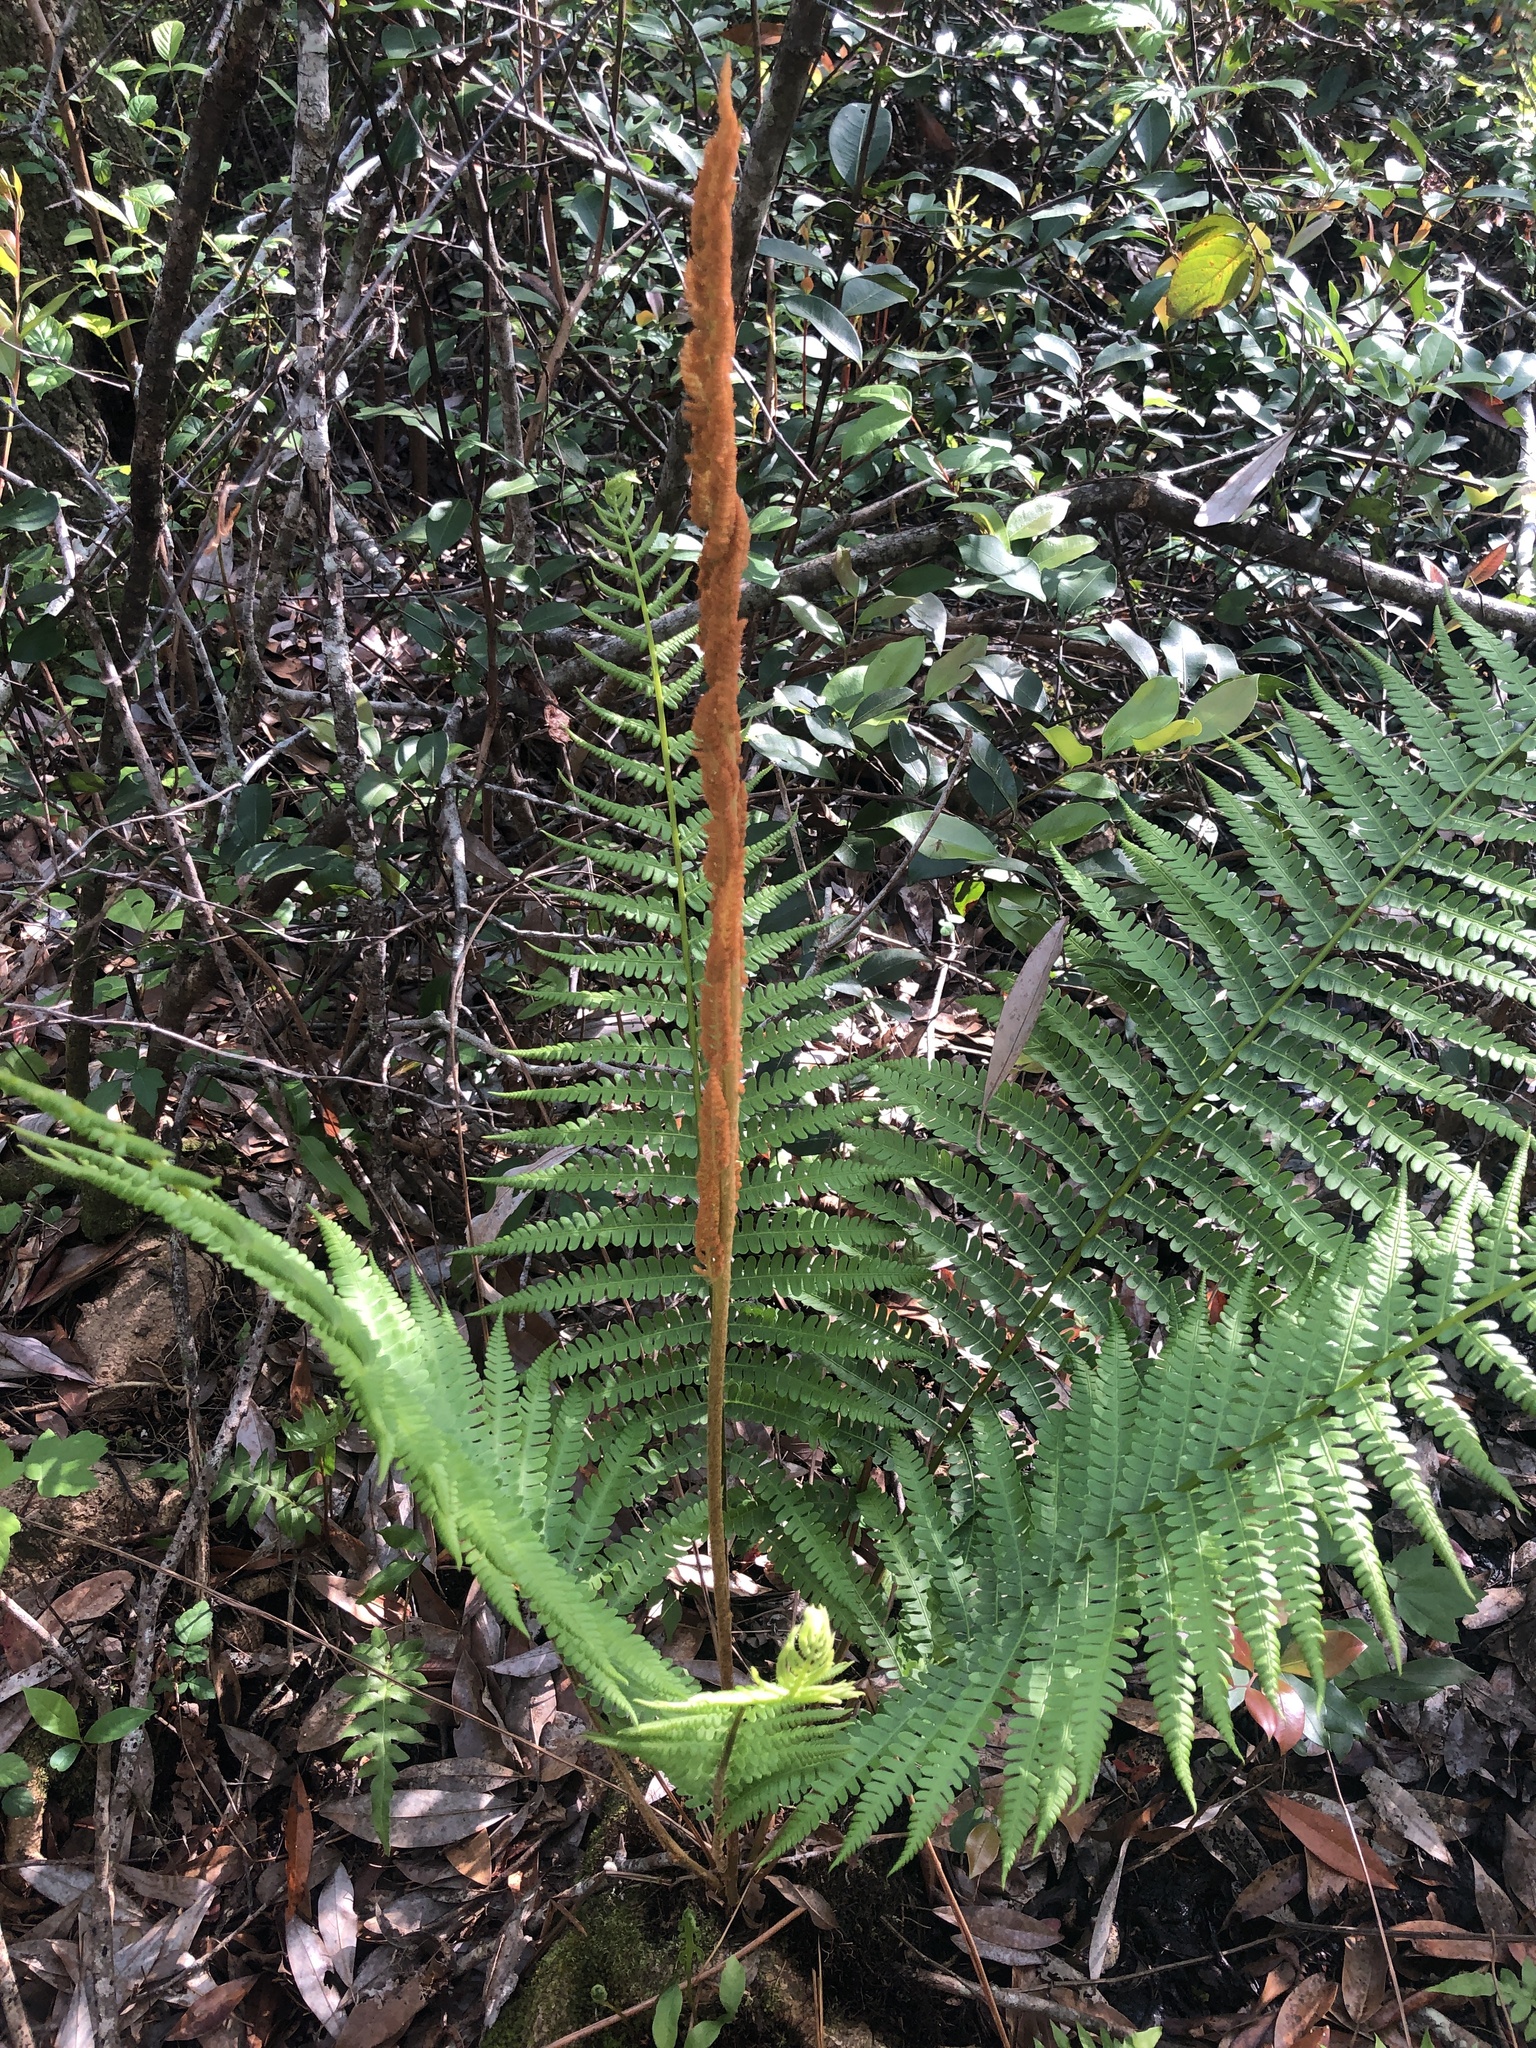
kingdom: Plantae
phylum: Tracheophyta
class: Polypodiopsida
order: Osmundales
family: Osmundaceae
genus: Osmundastrum
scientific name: Osmundastrum cinnamomeum
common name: Cinnamon fern
